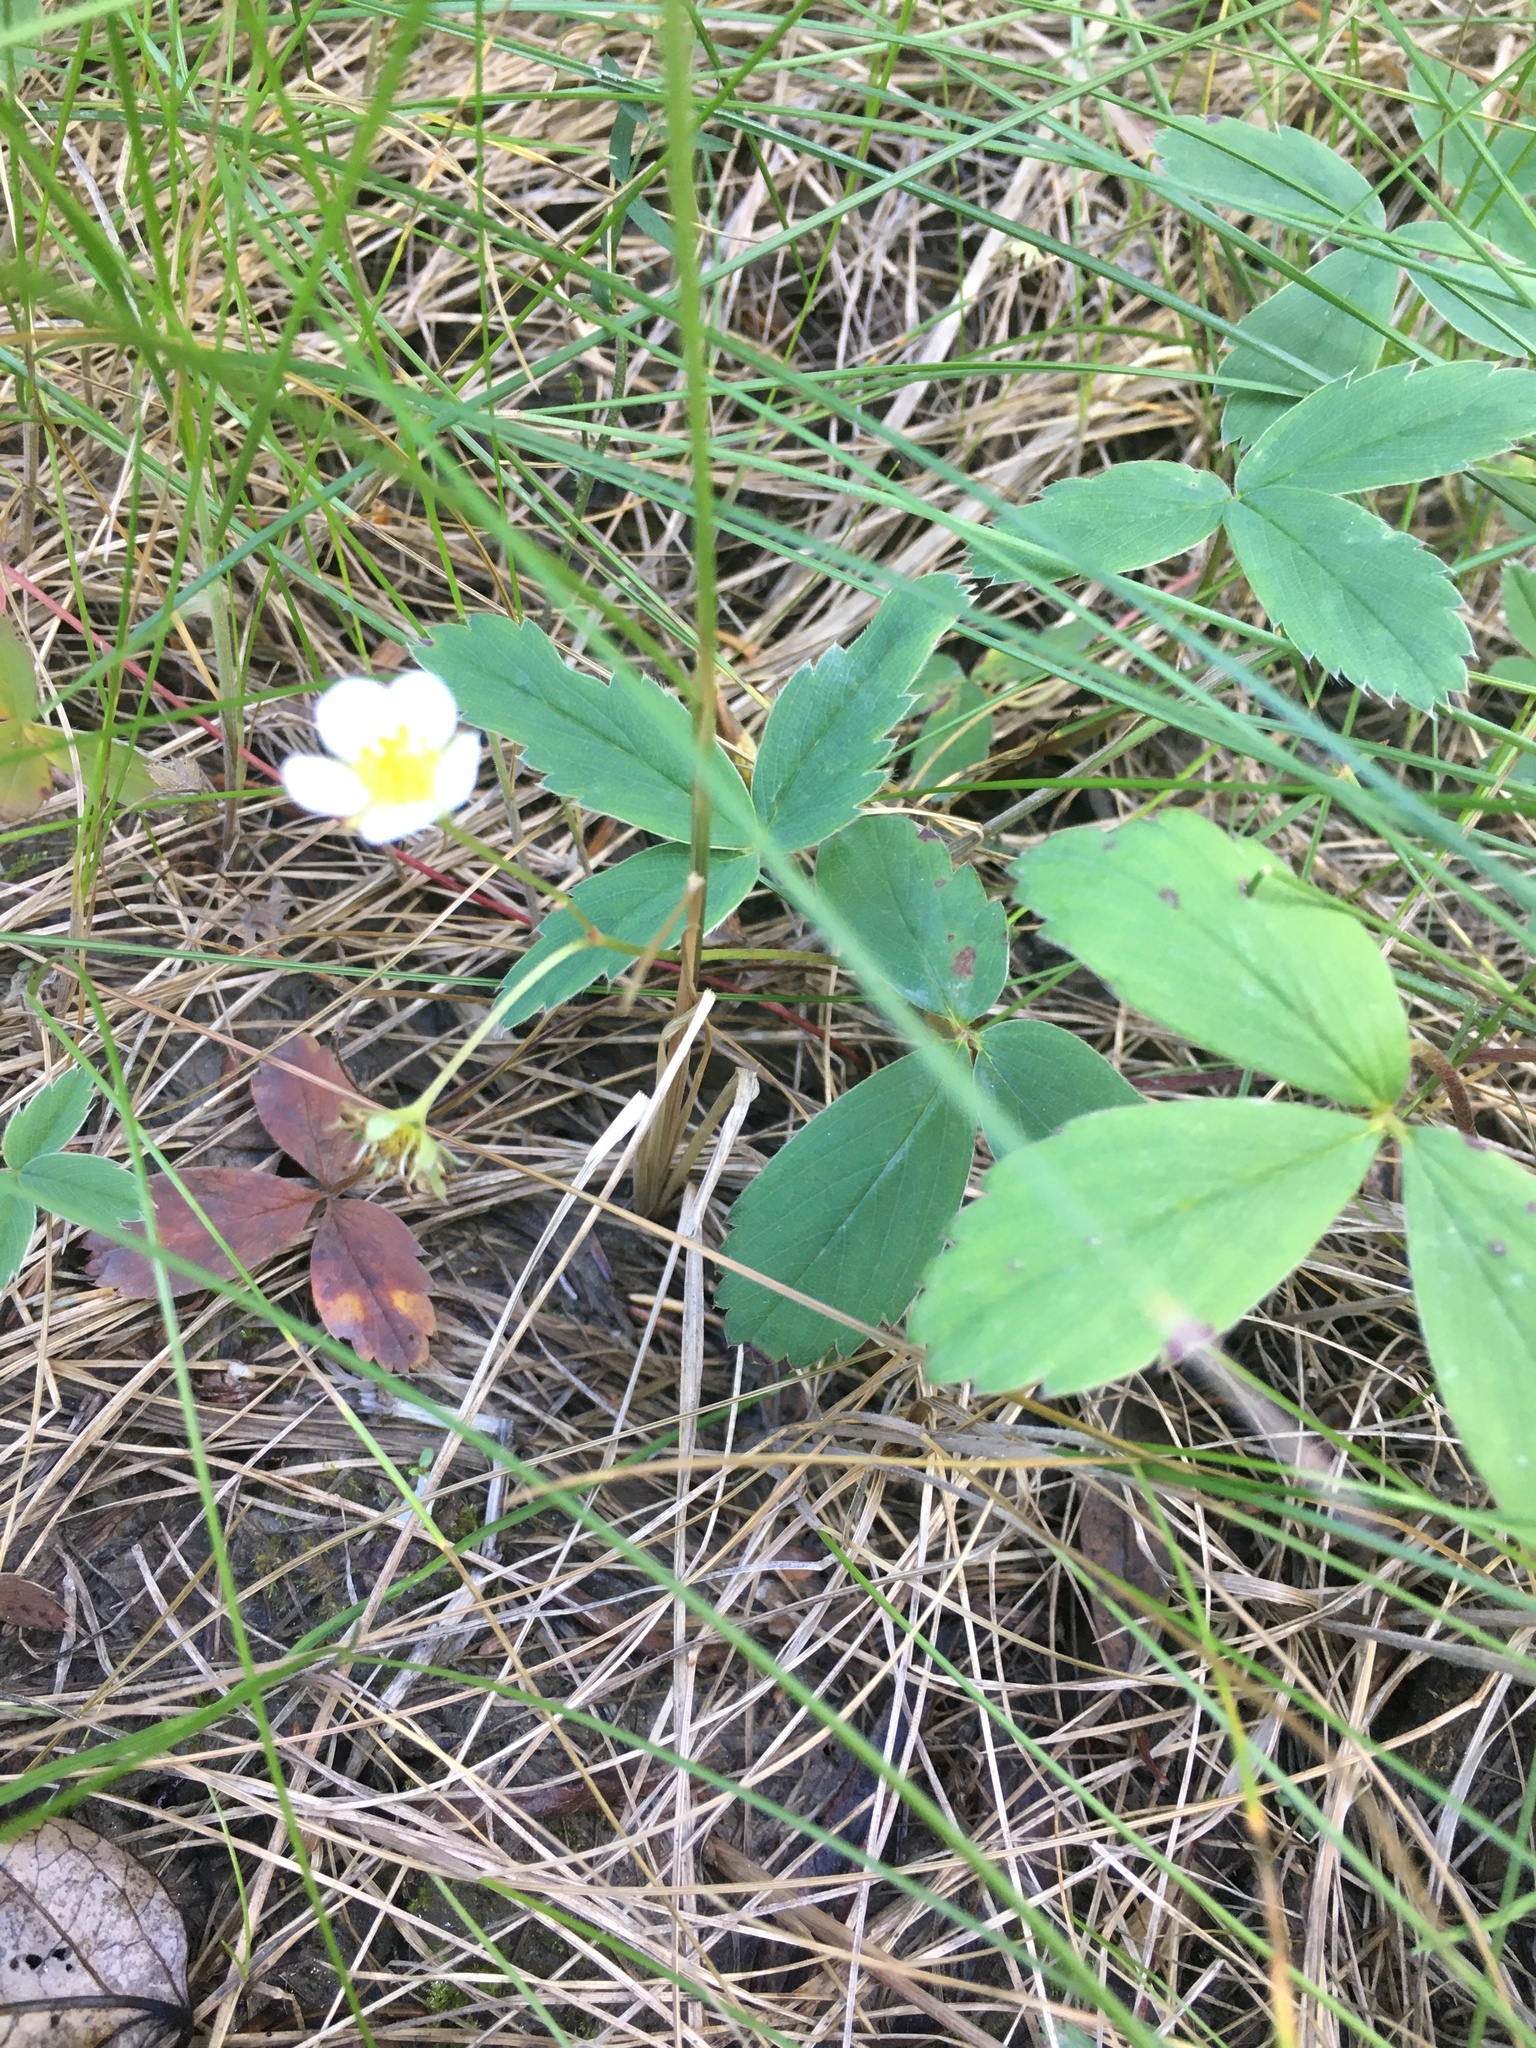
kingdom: Plantae
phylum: Tracheophyta
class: Magnoliopsida
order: Rosales
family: Rosaceae
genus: Fragaria
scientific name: Fragaria virginiana
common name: Thickleaved wild strawberry
